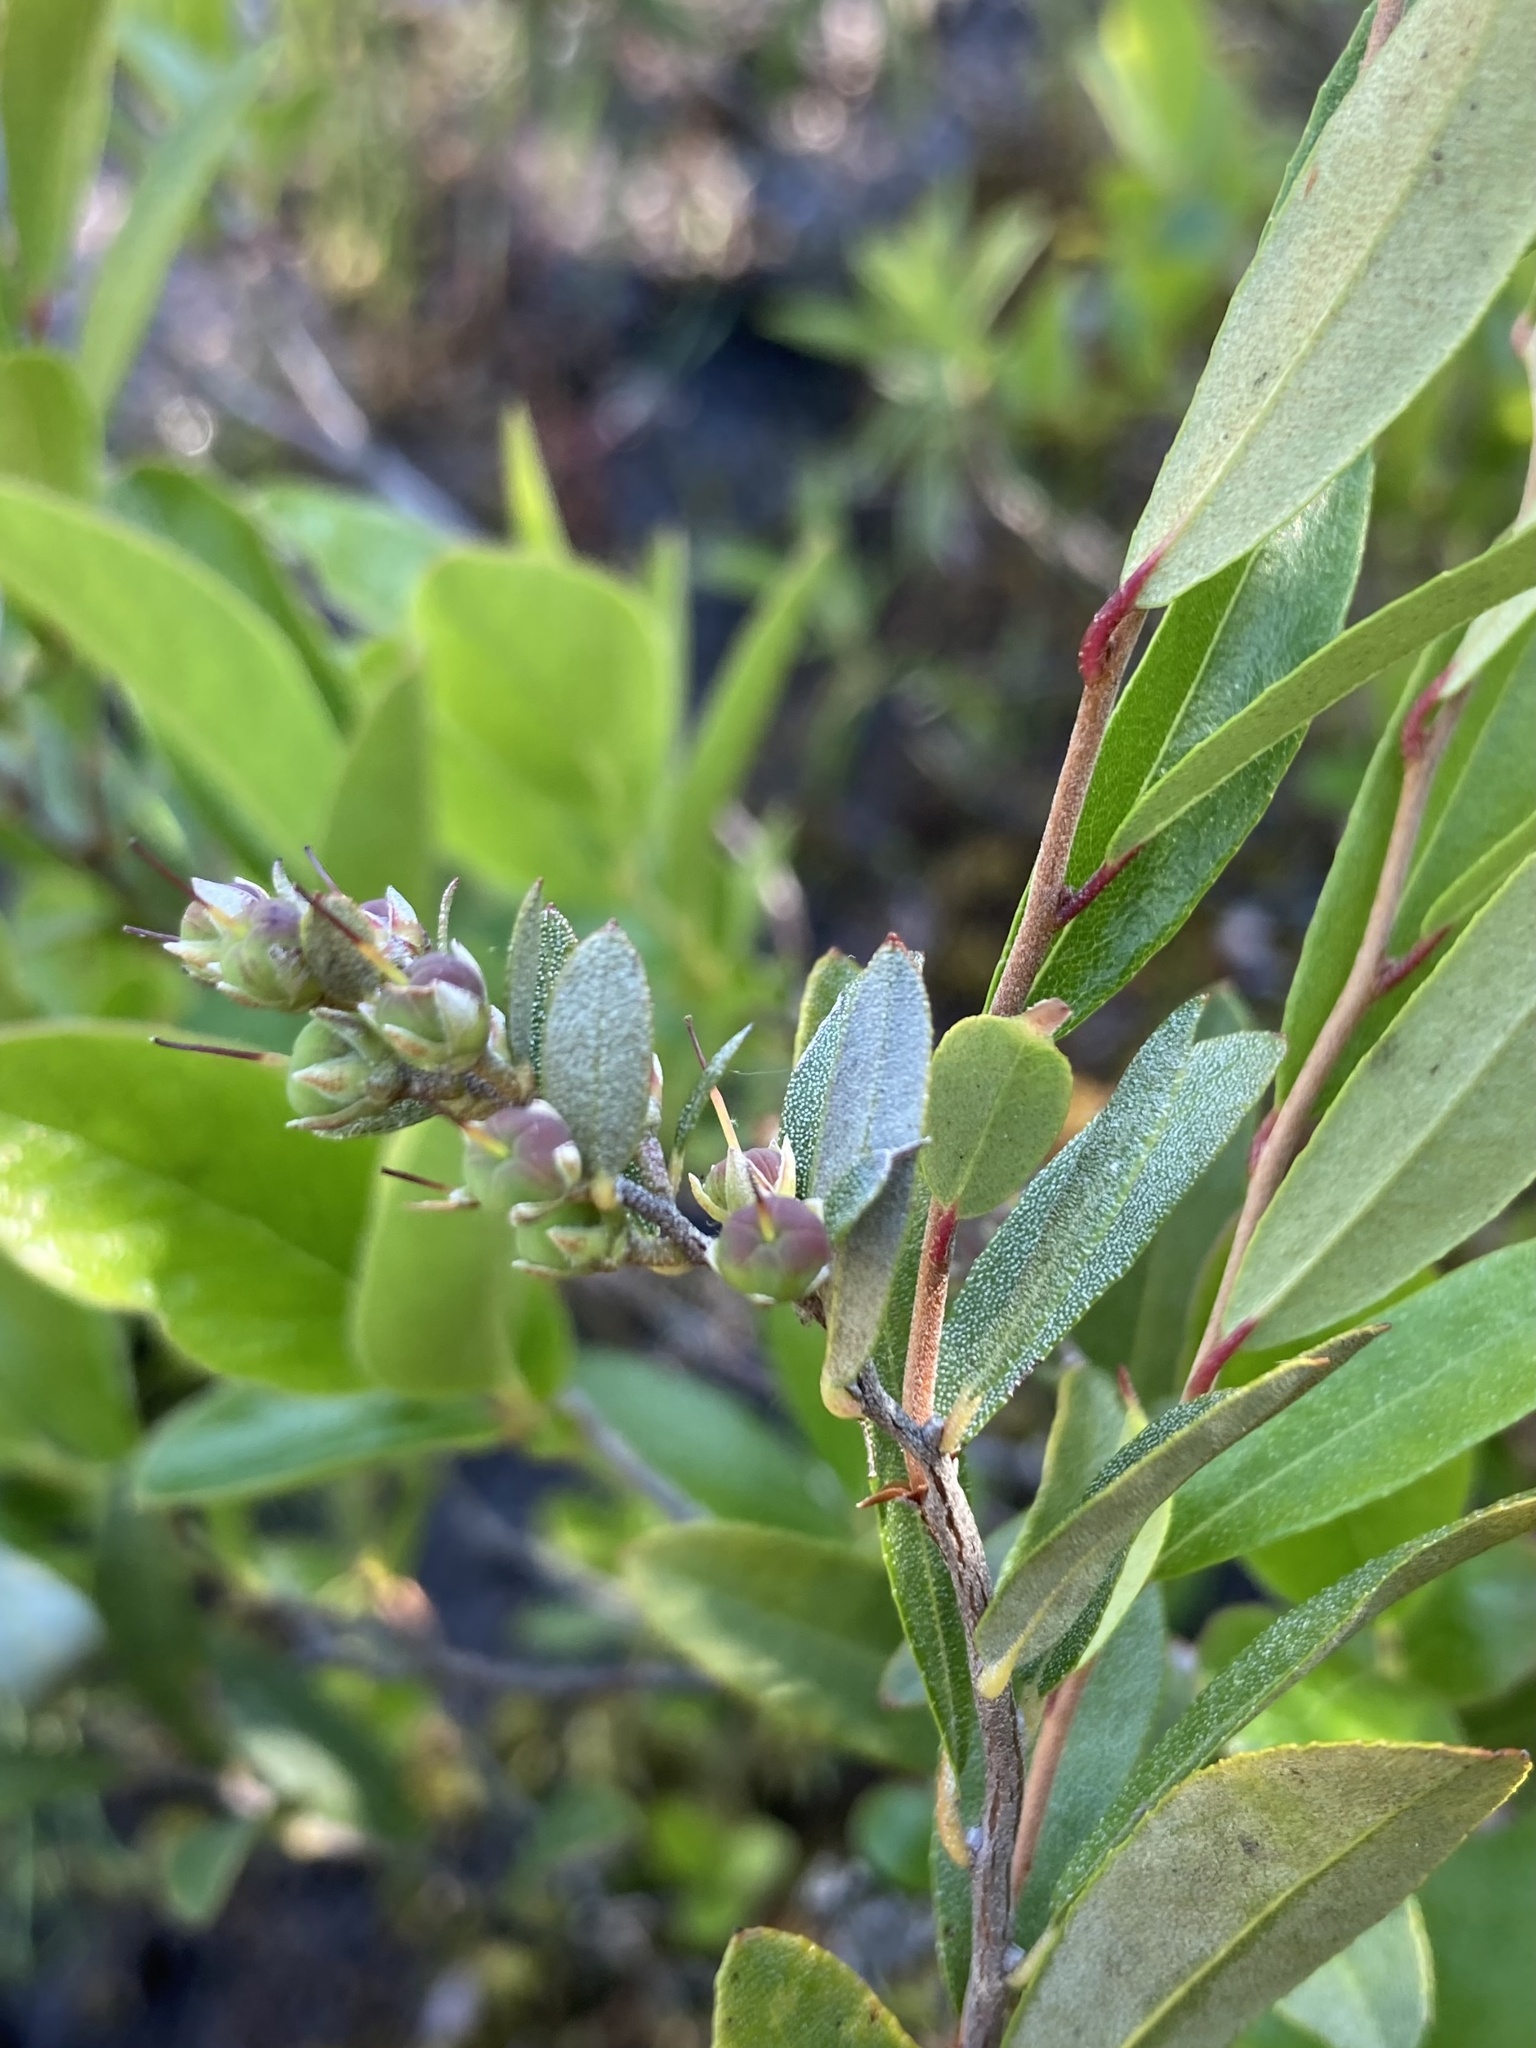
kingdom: Plantae
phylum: Tracheophyta
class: Magnoliopsida
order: Ericales
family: Ericaceae
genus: Chamaedaphne
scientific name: Chamaedaphne calyculata
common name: Leatherleaf
